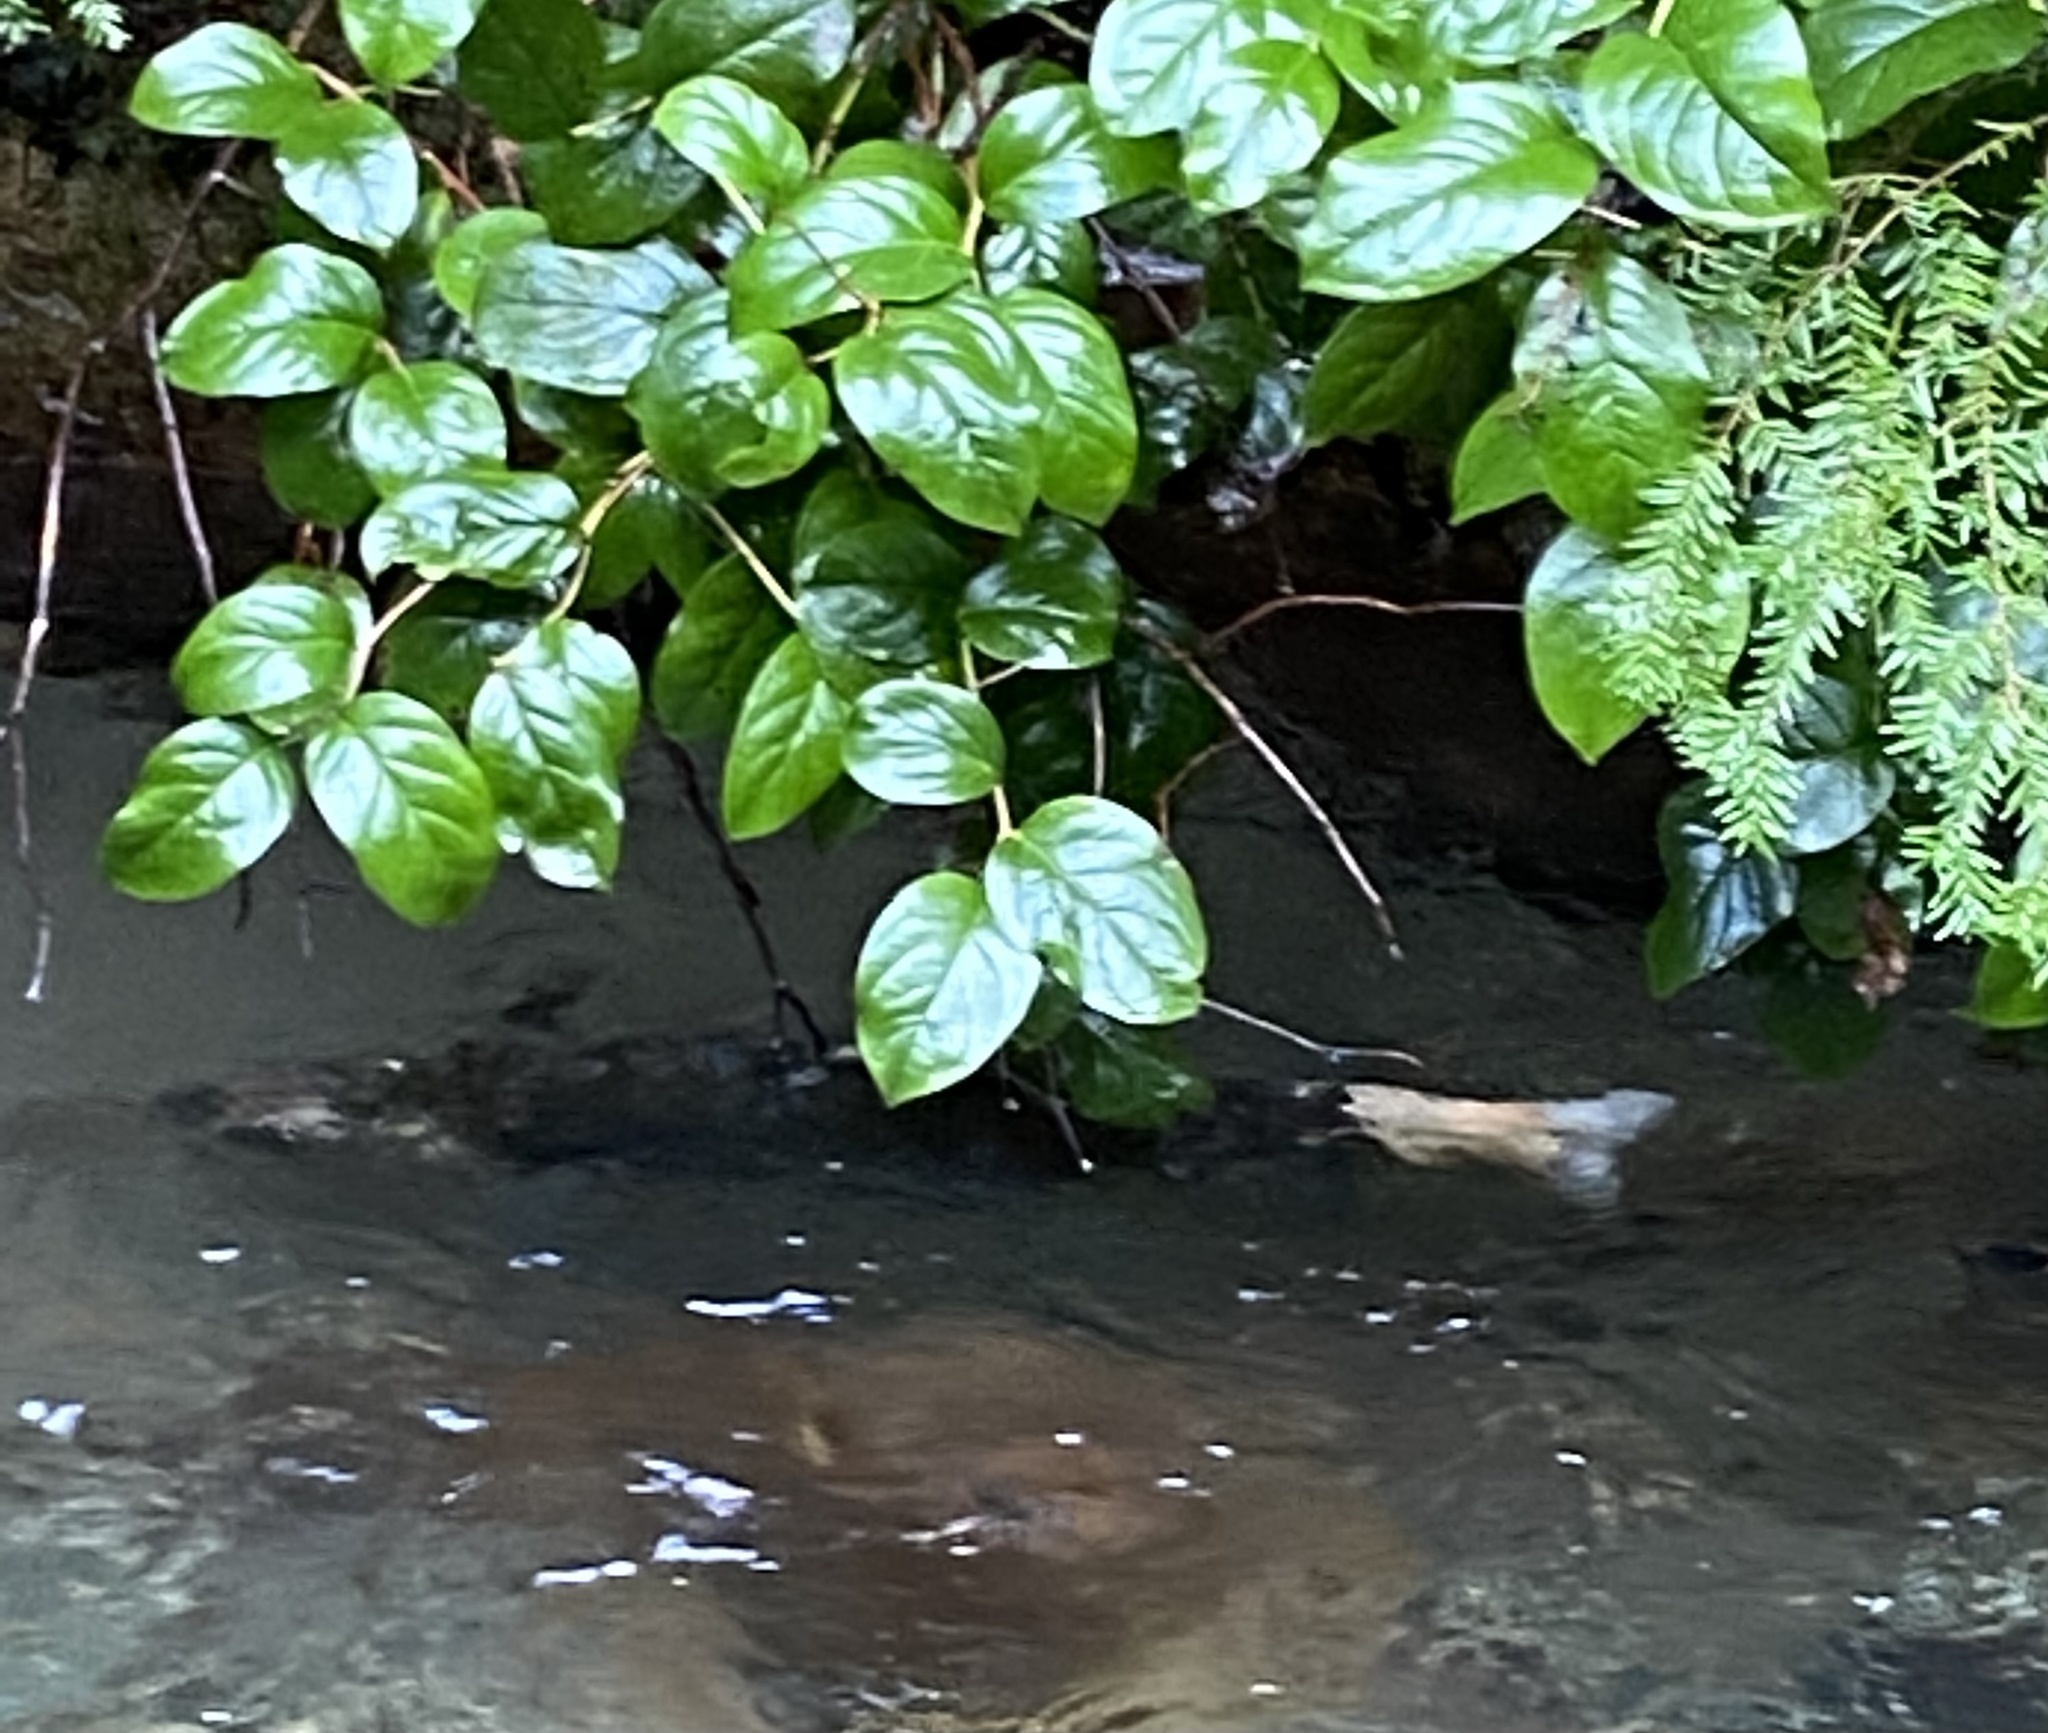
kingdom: Animalia
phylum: Chordata
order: Salmoniformes
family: Salmonidae
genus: Oncorhynchus
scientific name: Oncorhynchus tshawytscha
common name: Chinook salmon
